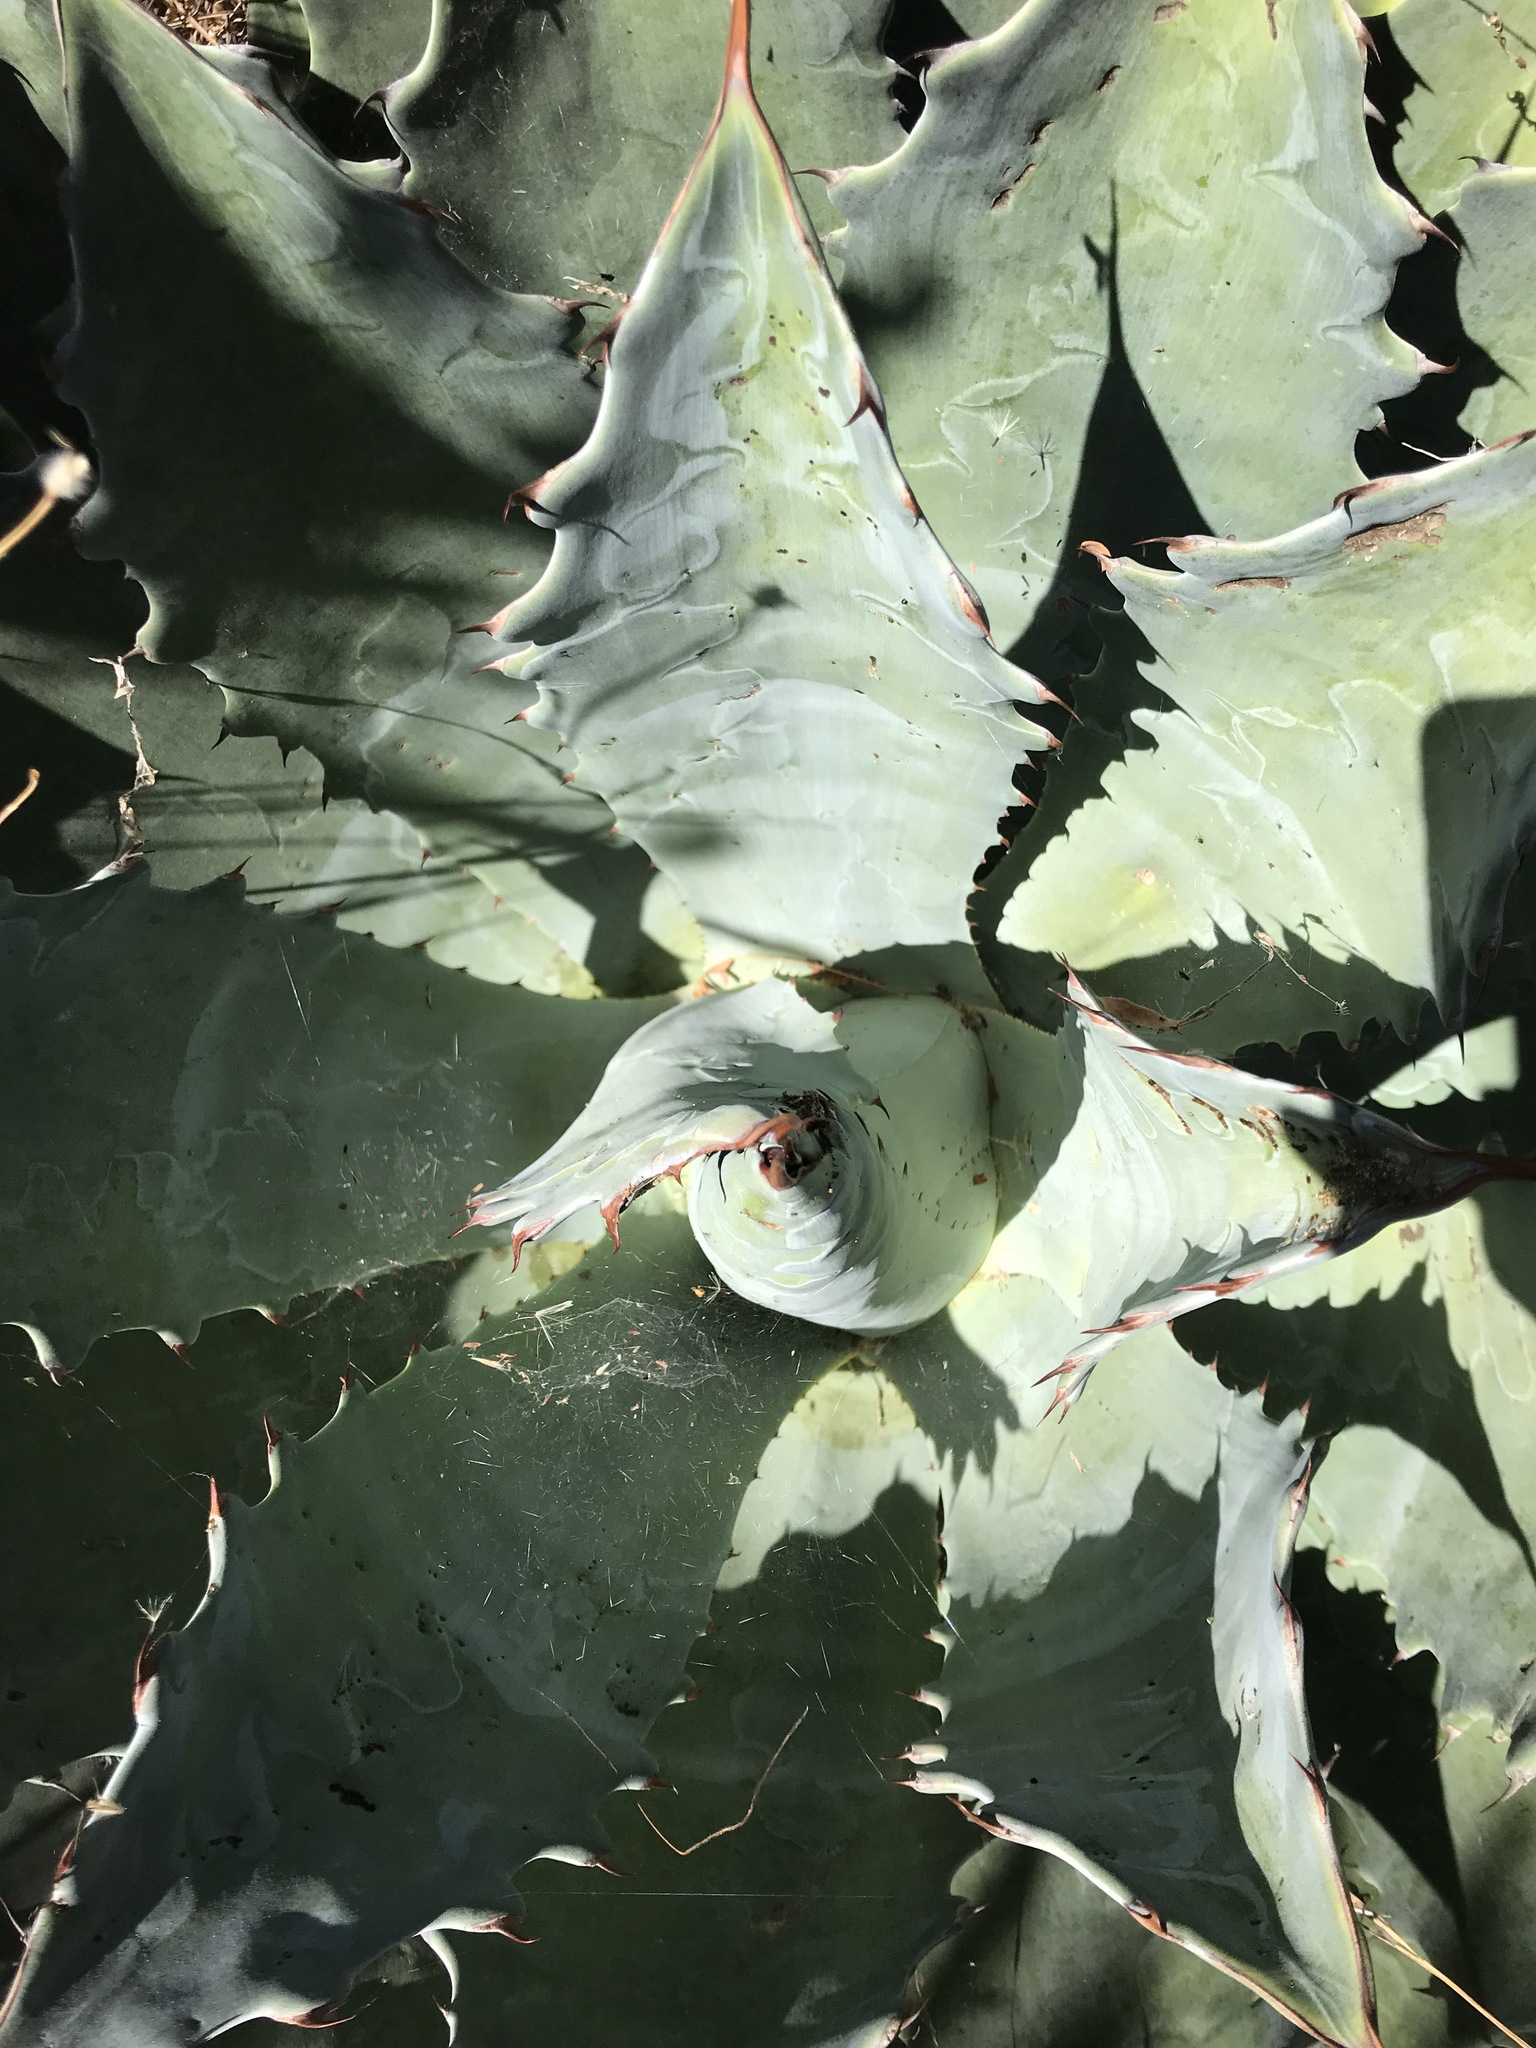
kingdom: Plantae
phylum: Tracheophyta
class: Liliopsida
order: Asparagales
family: Asparagaceae
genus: Agave
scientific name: Agave seemanniana
